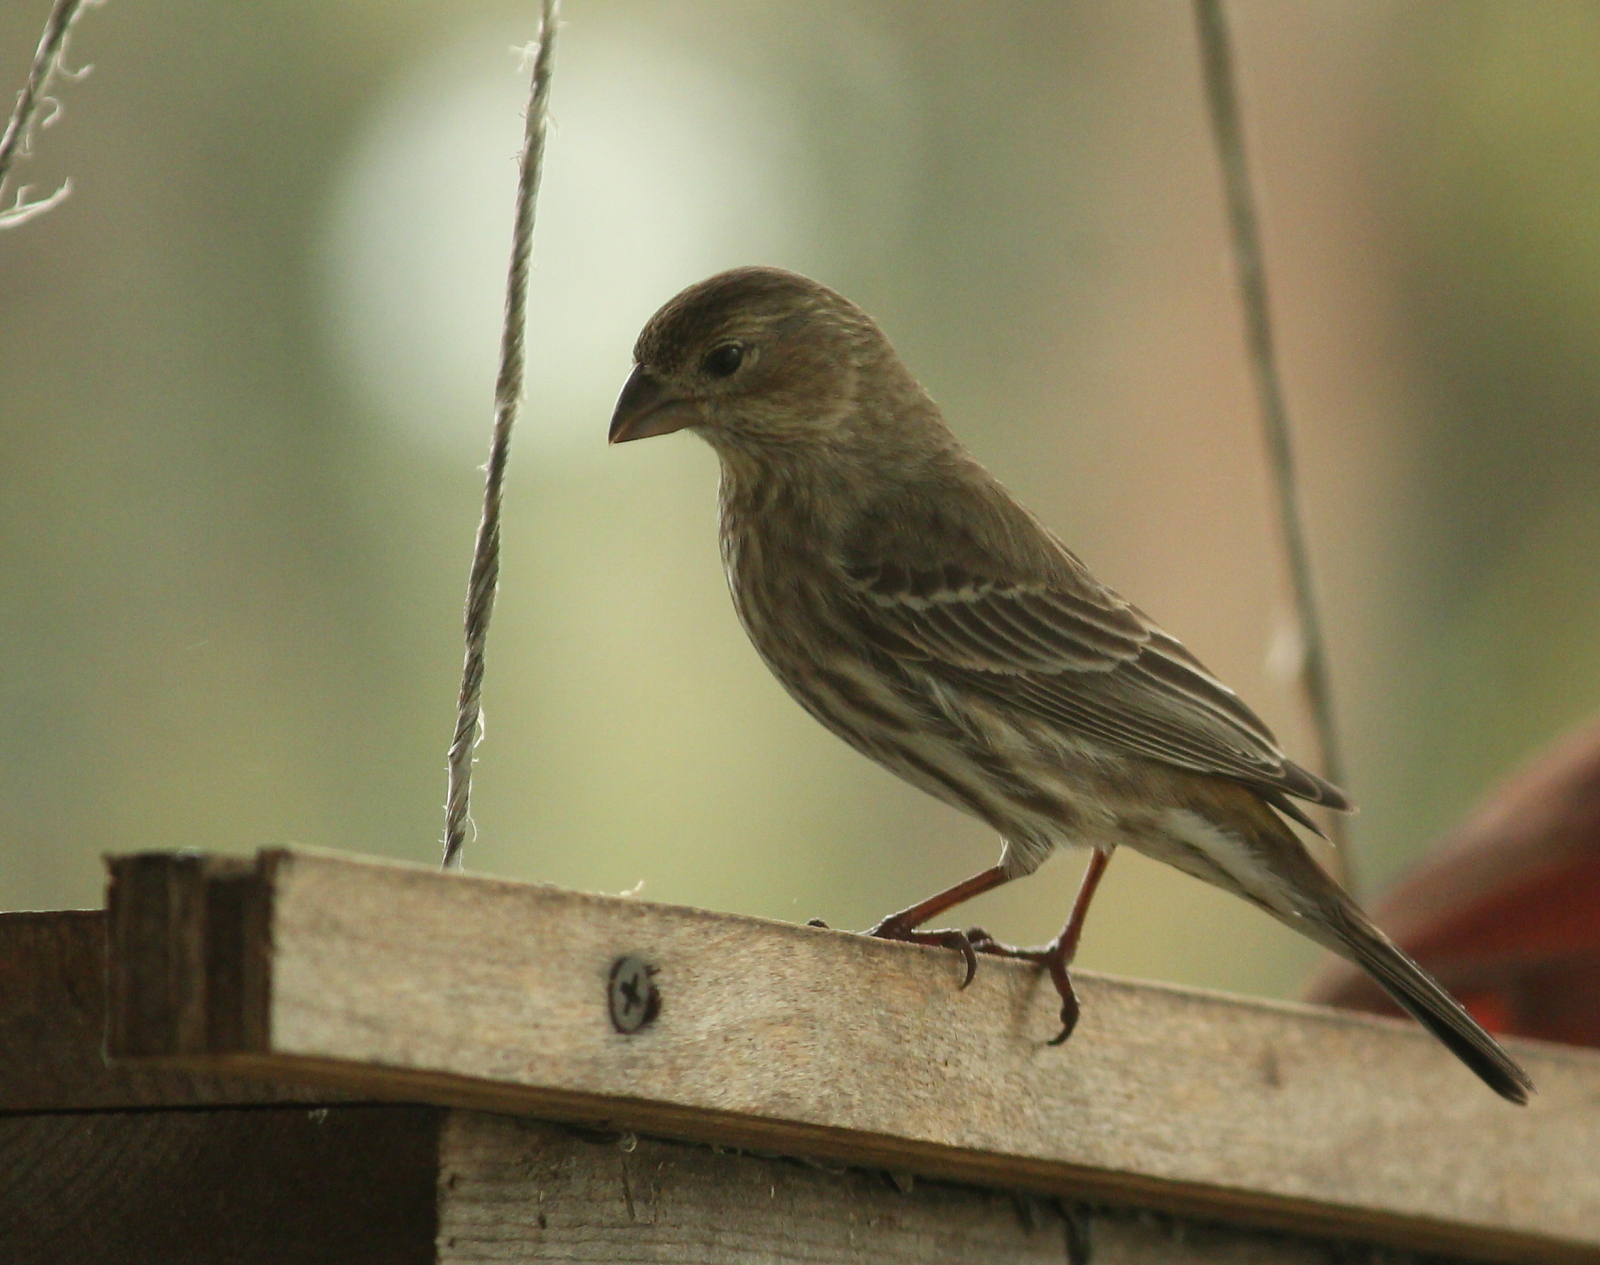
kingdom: Animalia
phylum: Chordata
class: Aves
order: Passeriformes
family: Fringillidae
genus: Haemorhous
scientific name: Haemorhous mexicanus
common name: House finch
